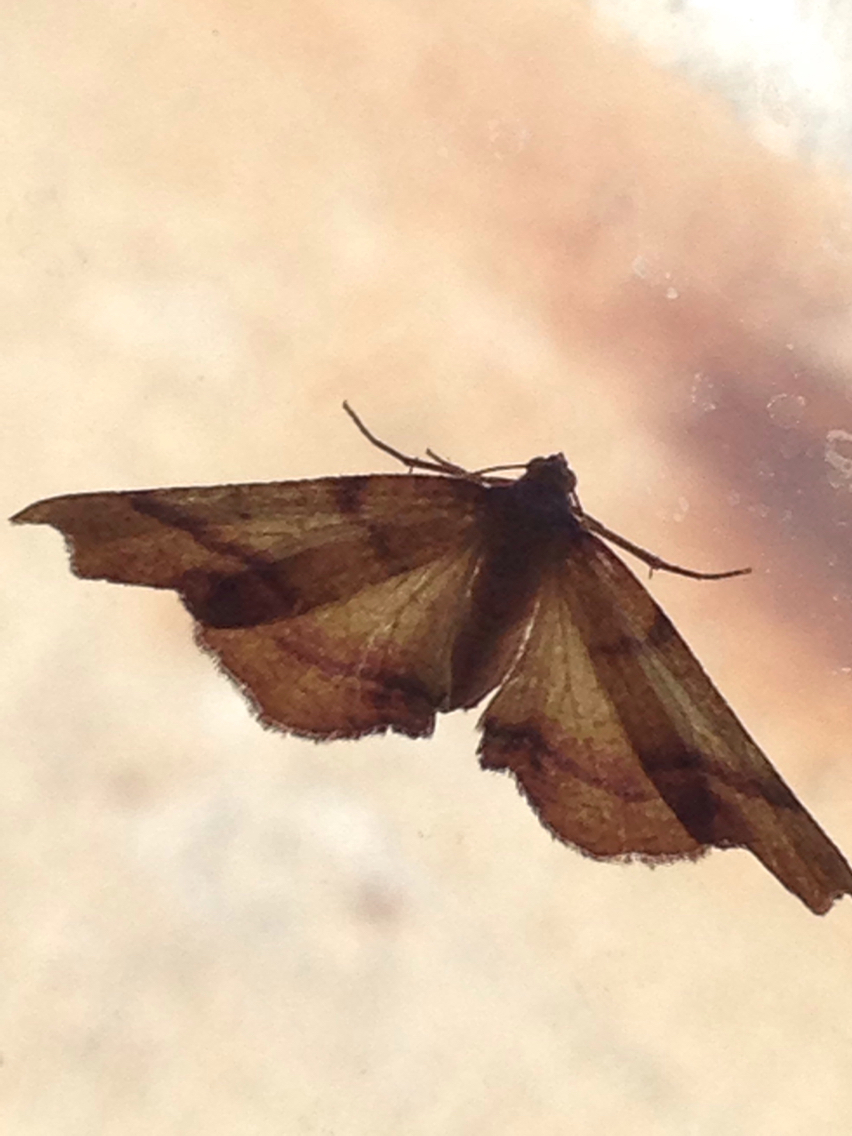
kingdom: Animalia
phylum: Arthropoda
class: Insecta
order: Lepidoptera
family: Geometridae
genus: Plagodis
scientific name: Plagodis phlogosaria
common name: Straight-lined plagodis
